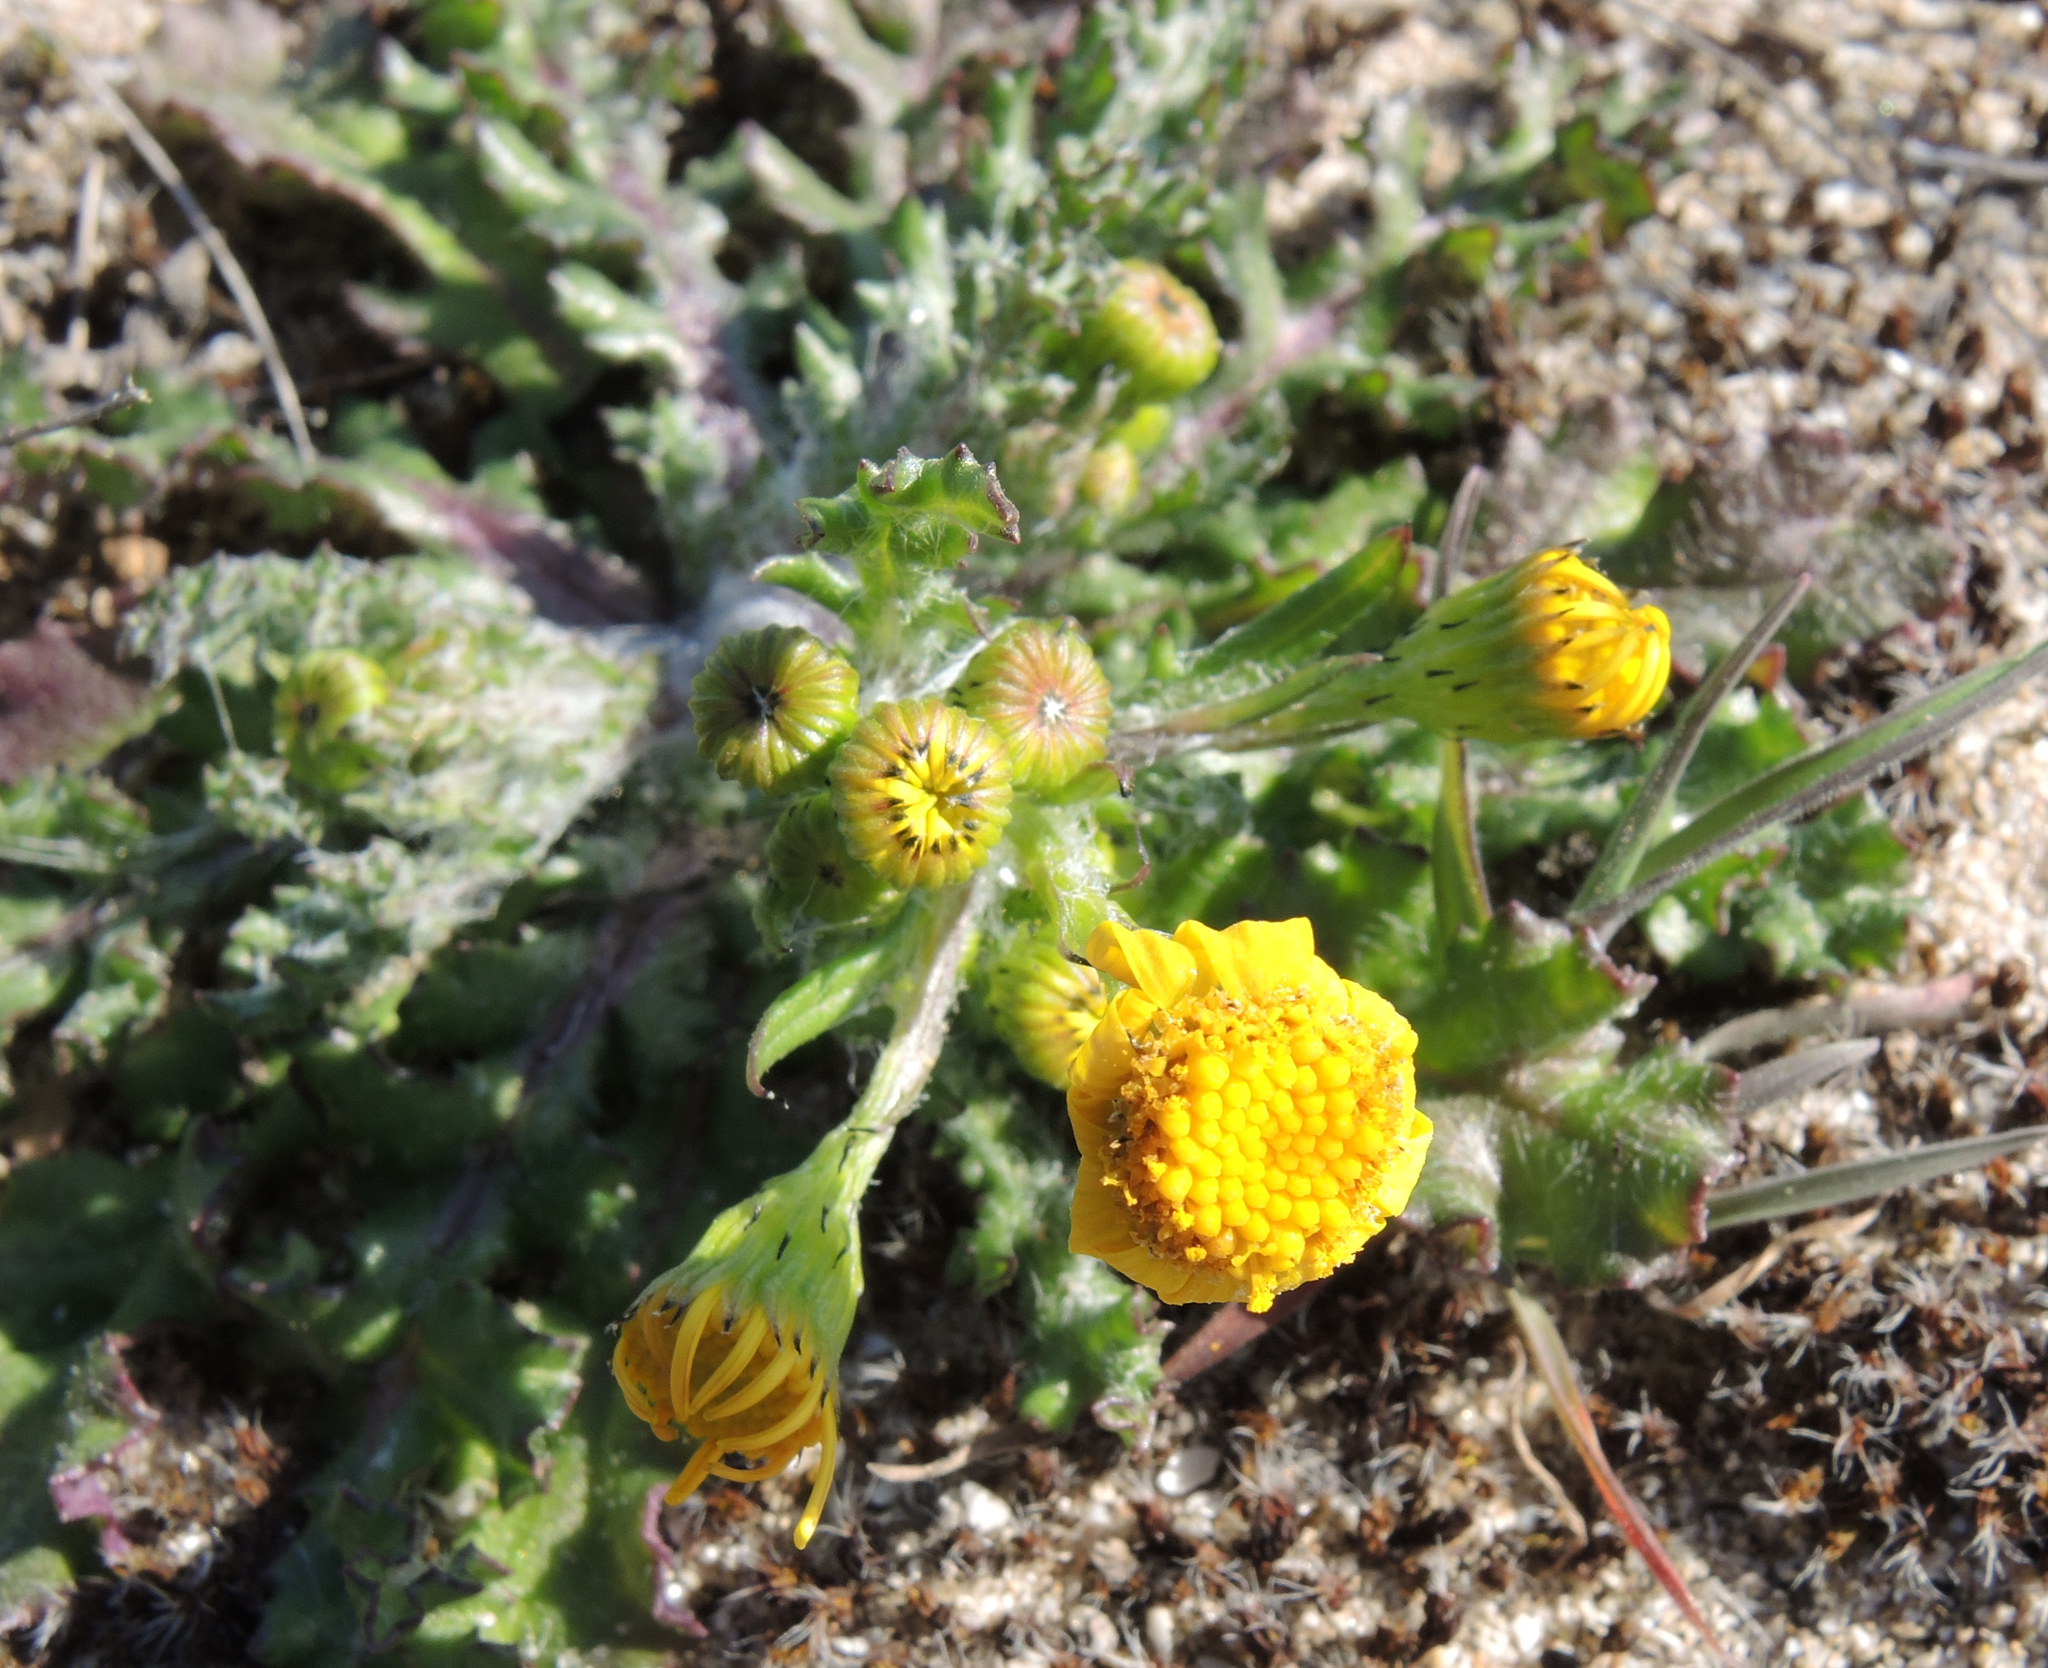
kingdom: Plantae
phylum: Tracheophyta
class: Magnoliopsida
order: Asterales
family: Asteraceae
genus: Senecio
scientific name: Senecio vulgaris
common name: Old-man-in-the-spring
